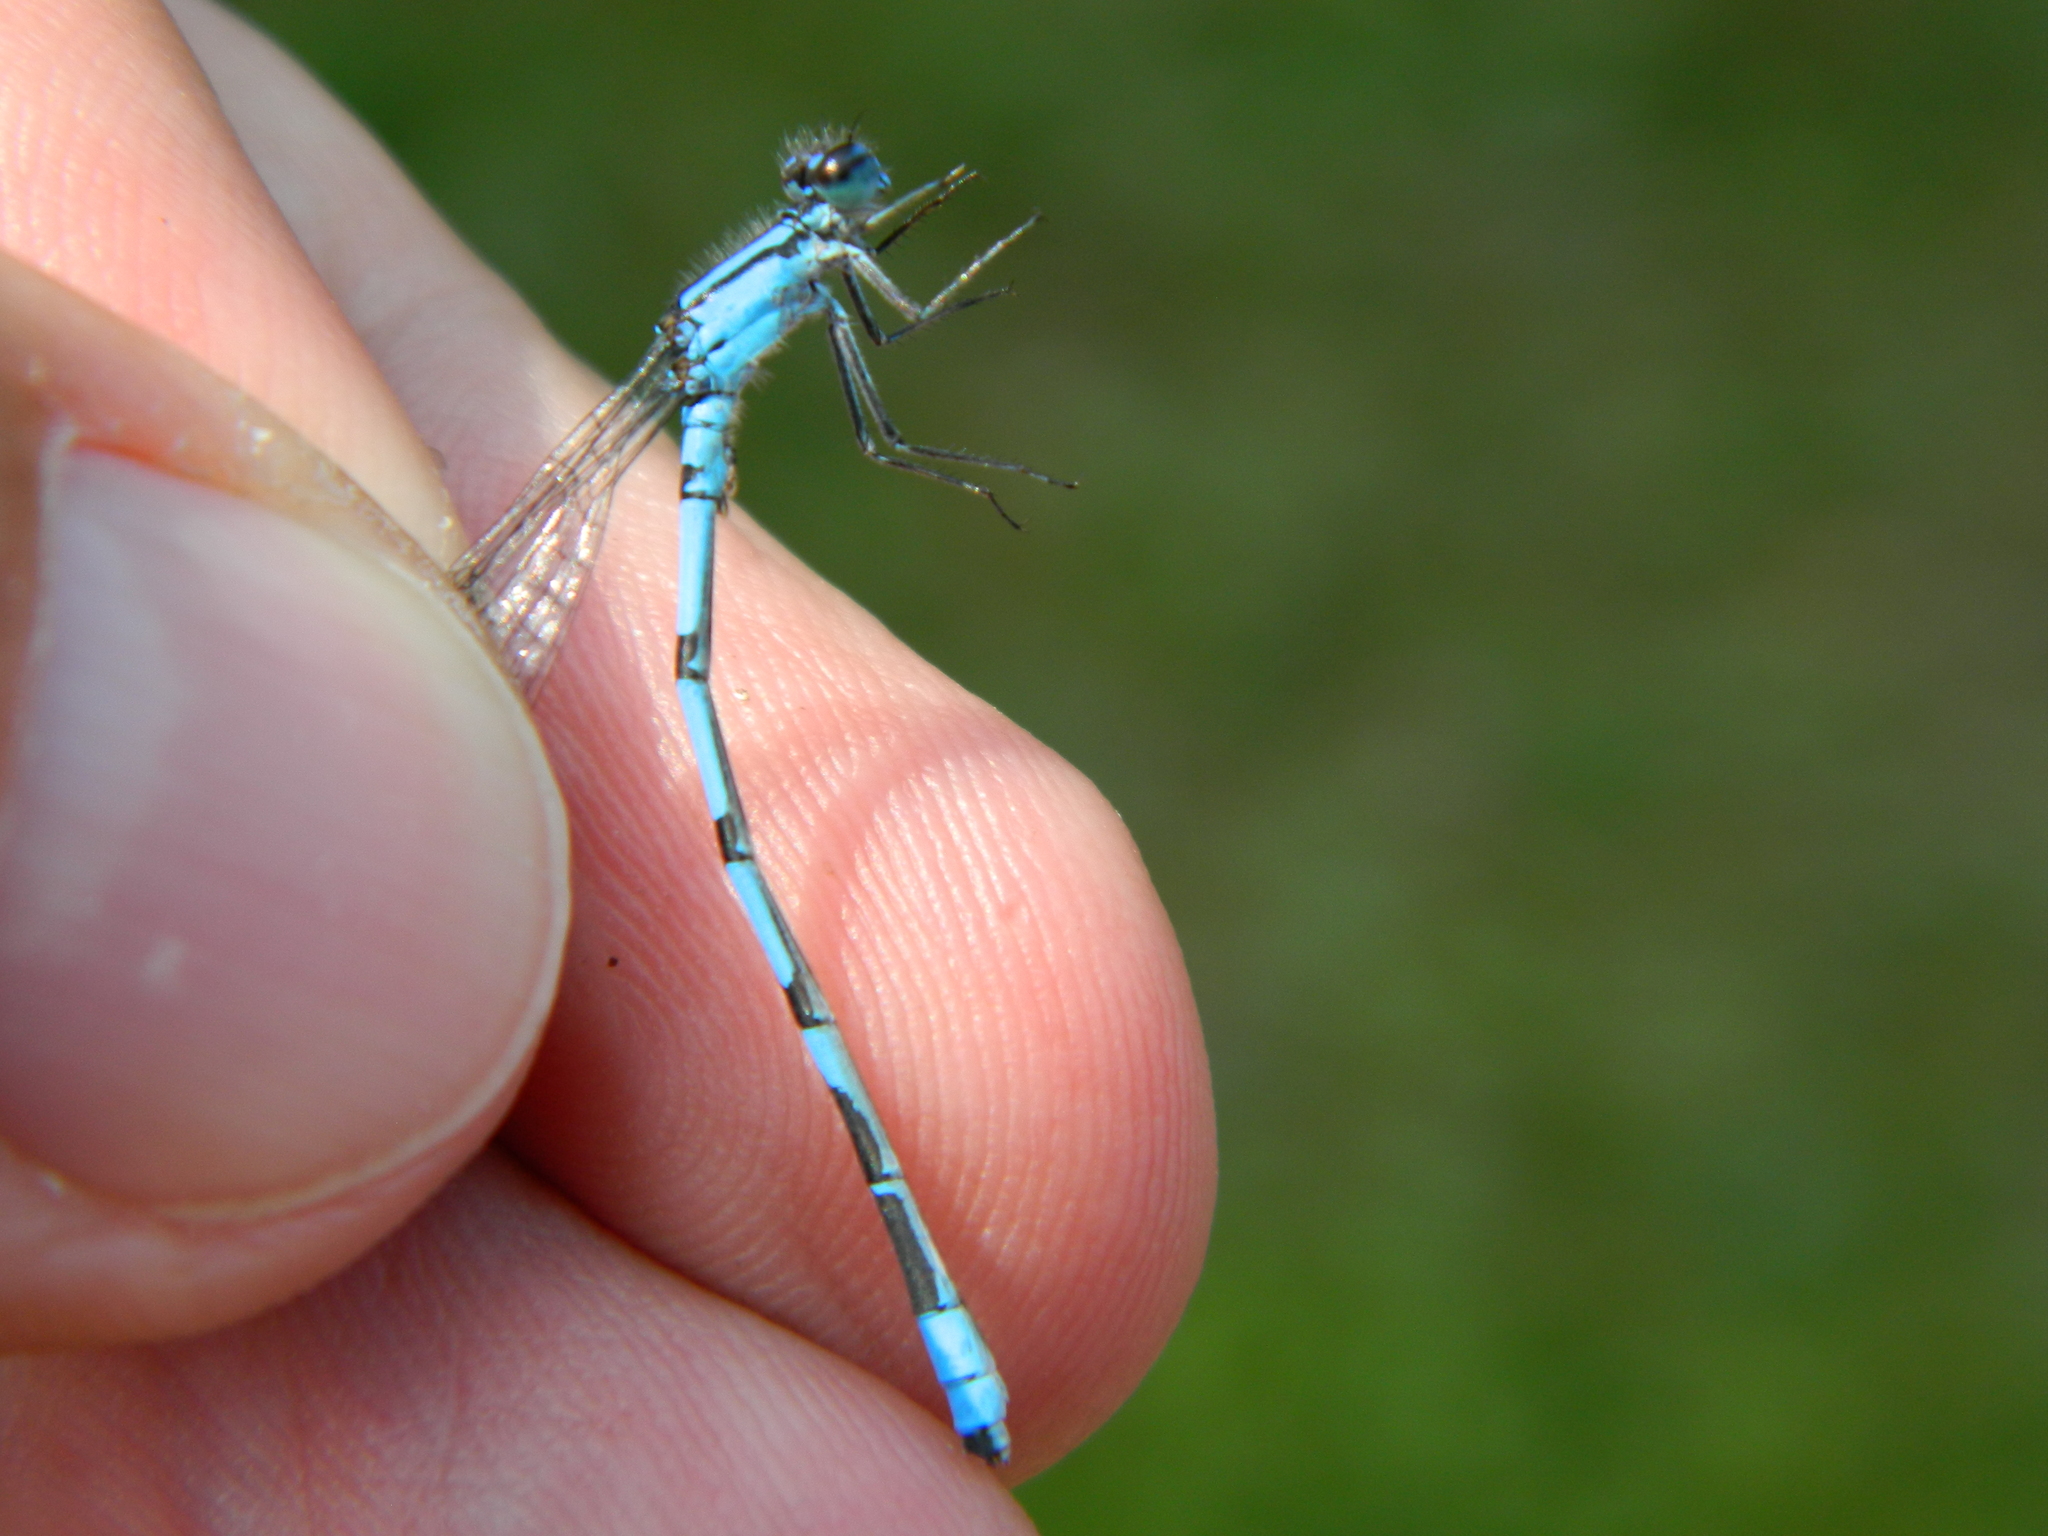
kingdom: Animalia
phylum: Arthropoda
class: Insecta
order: Odonata
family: Coenagrionidae
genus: Enallagma
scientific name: Enallagma hageni
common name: Hagen's bluet
